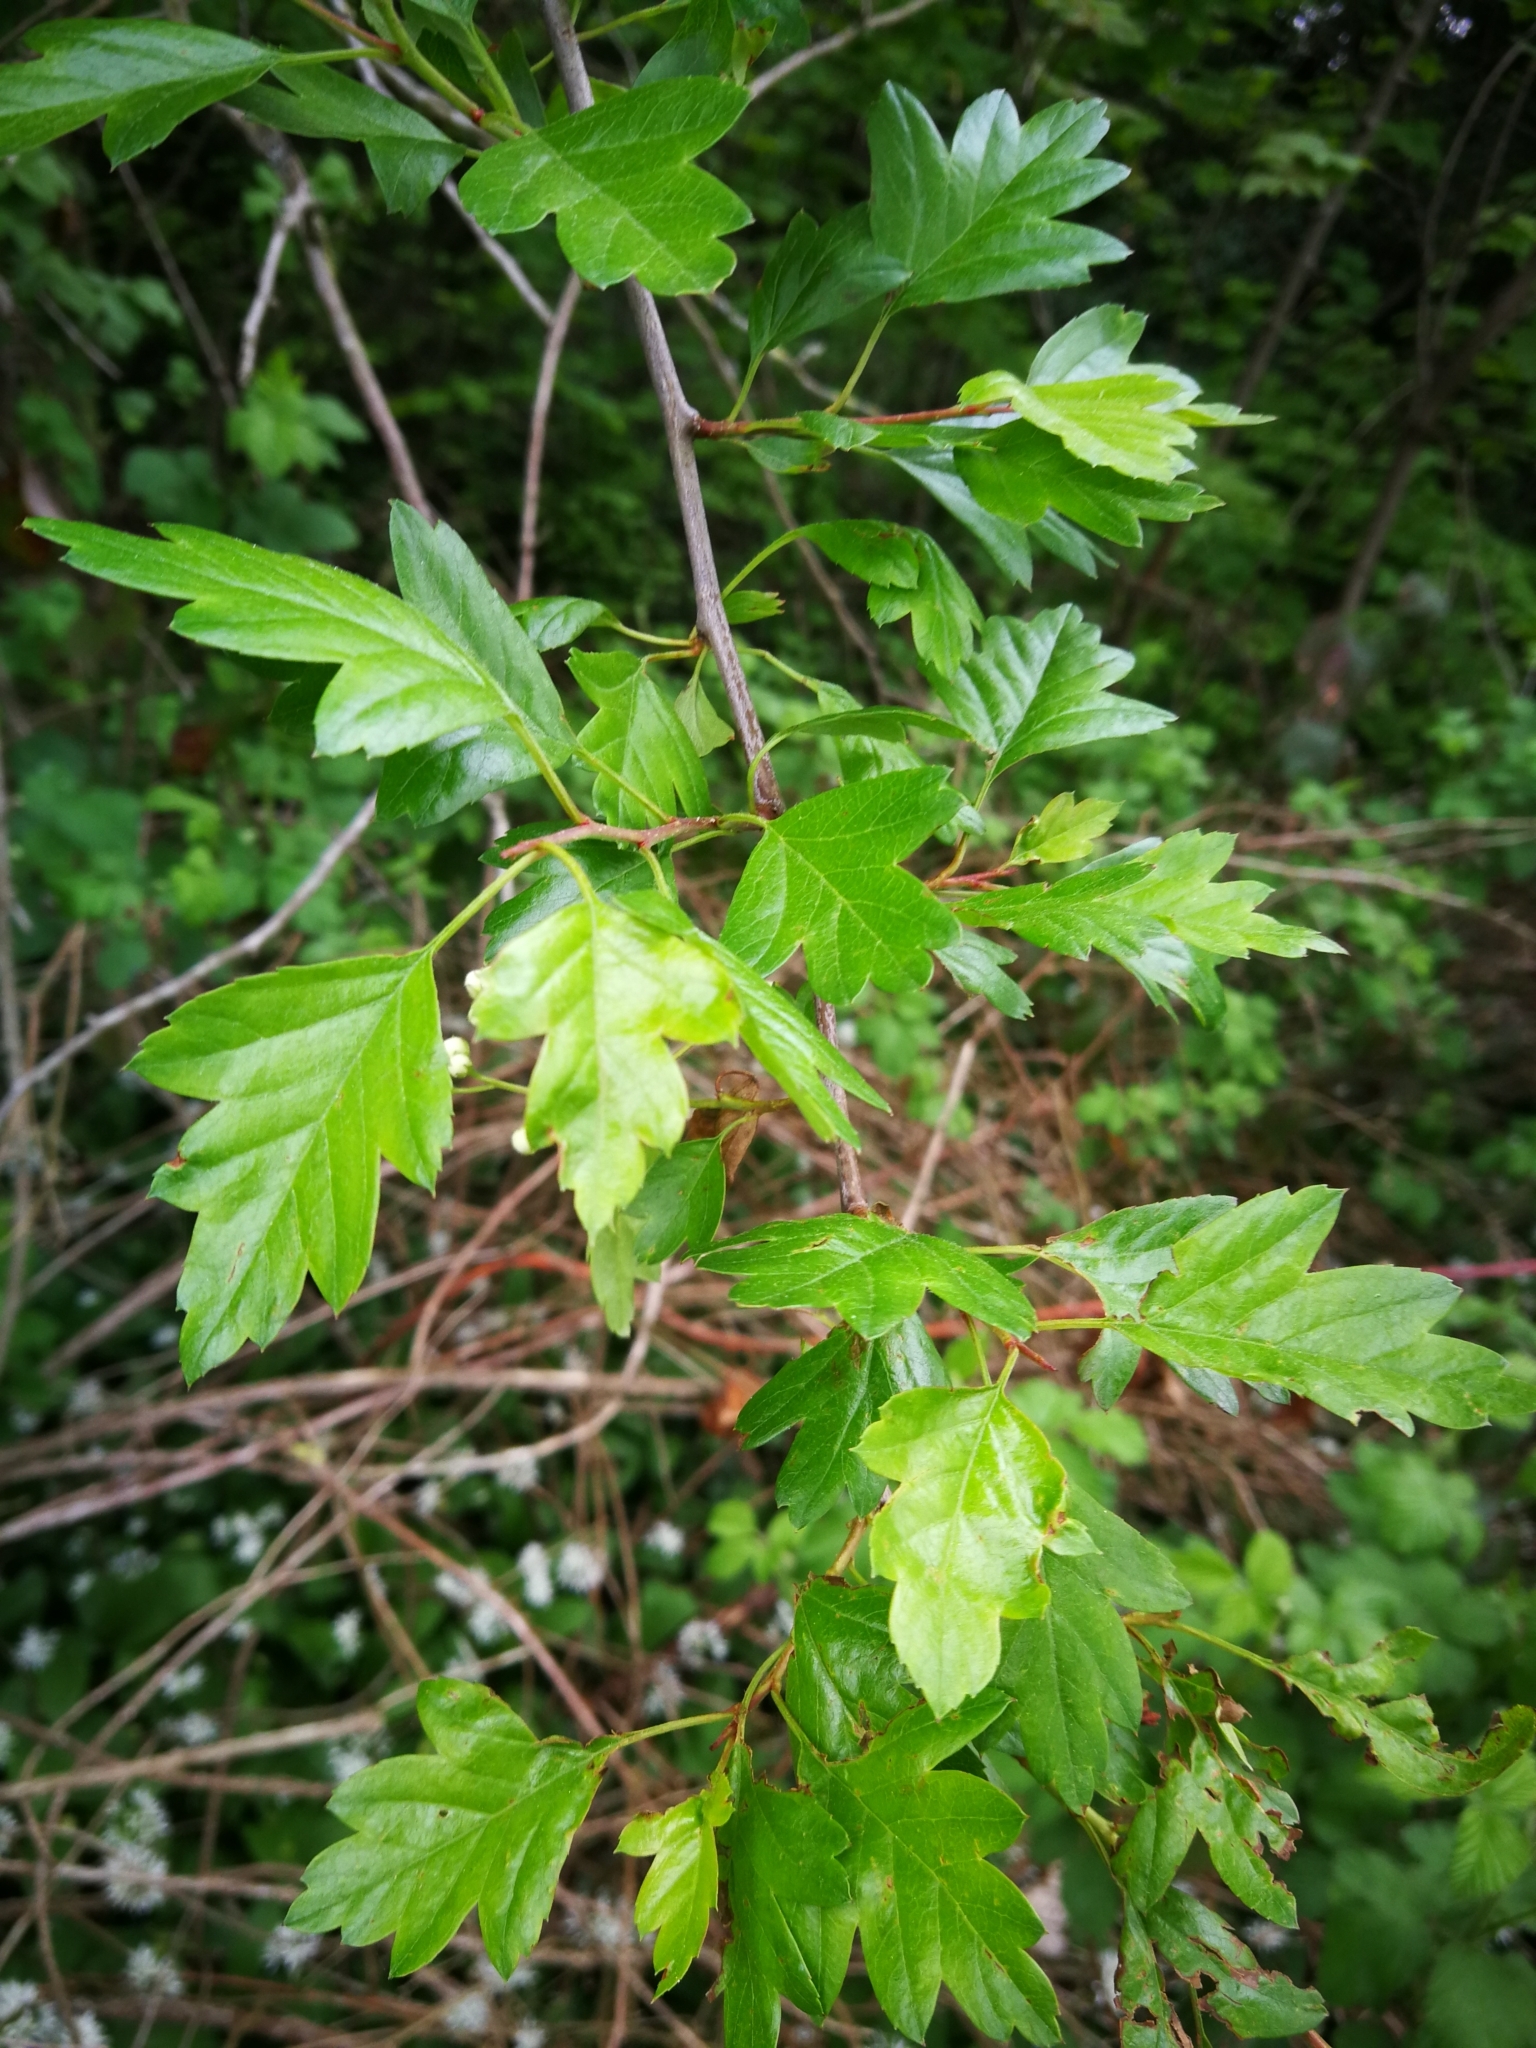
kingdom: Plantae
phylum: Tracheophyta
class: Magnoliopsida
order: Rosales
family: Rosaceae
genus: Crataegus
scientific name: Crataegus monogyna
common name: Hawthorn
